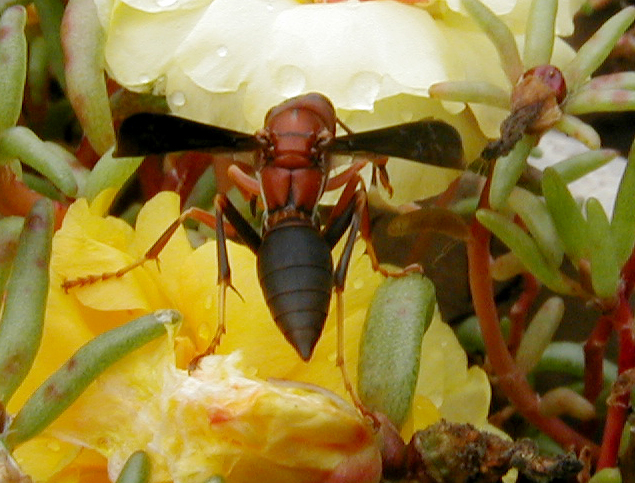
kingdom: Animalia
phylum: Arthropoda
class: Insecta
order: Hymenoptera
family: Eumenidae
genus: Polistes
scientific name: Polistes metricus
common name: Metric paper wasp
